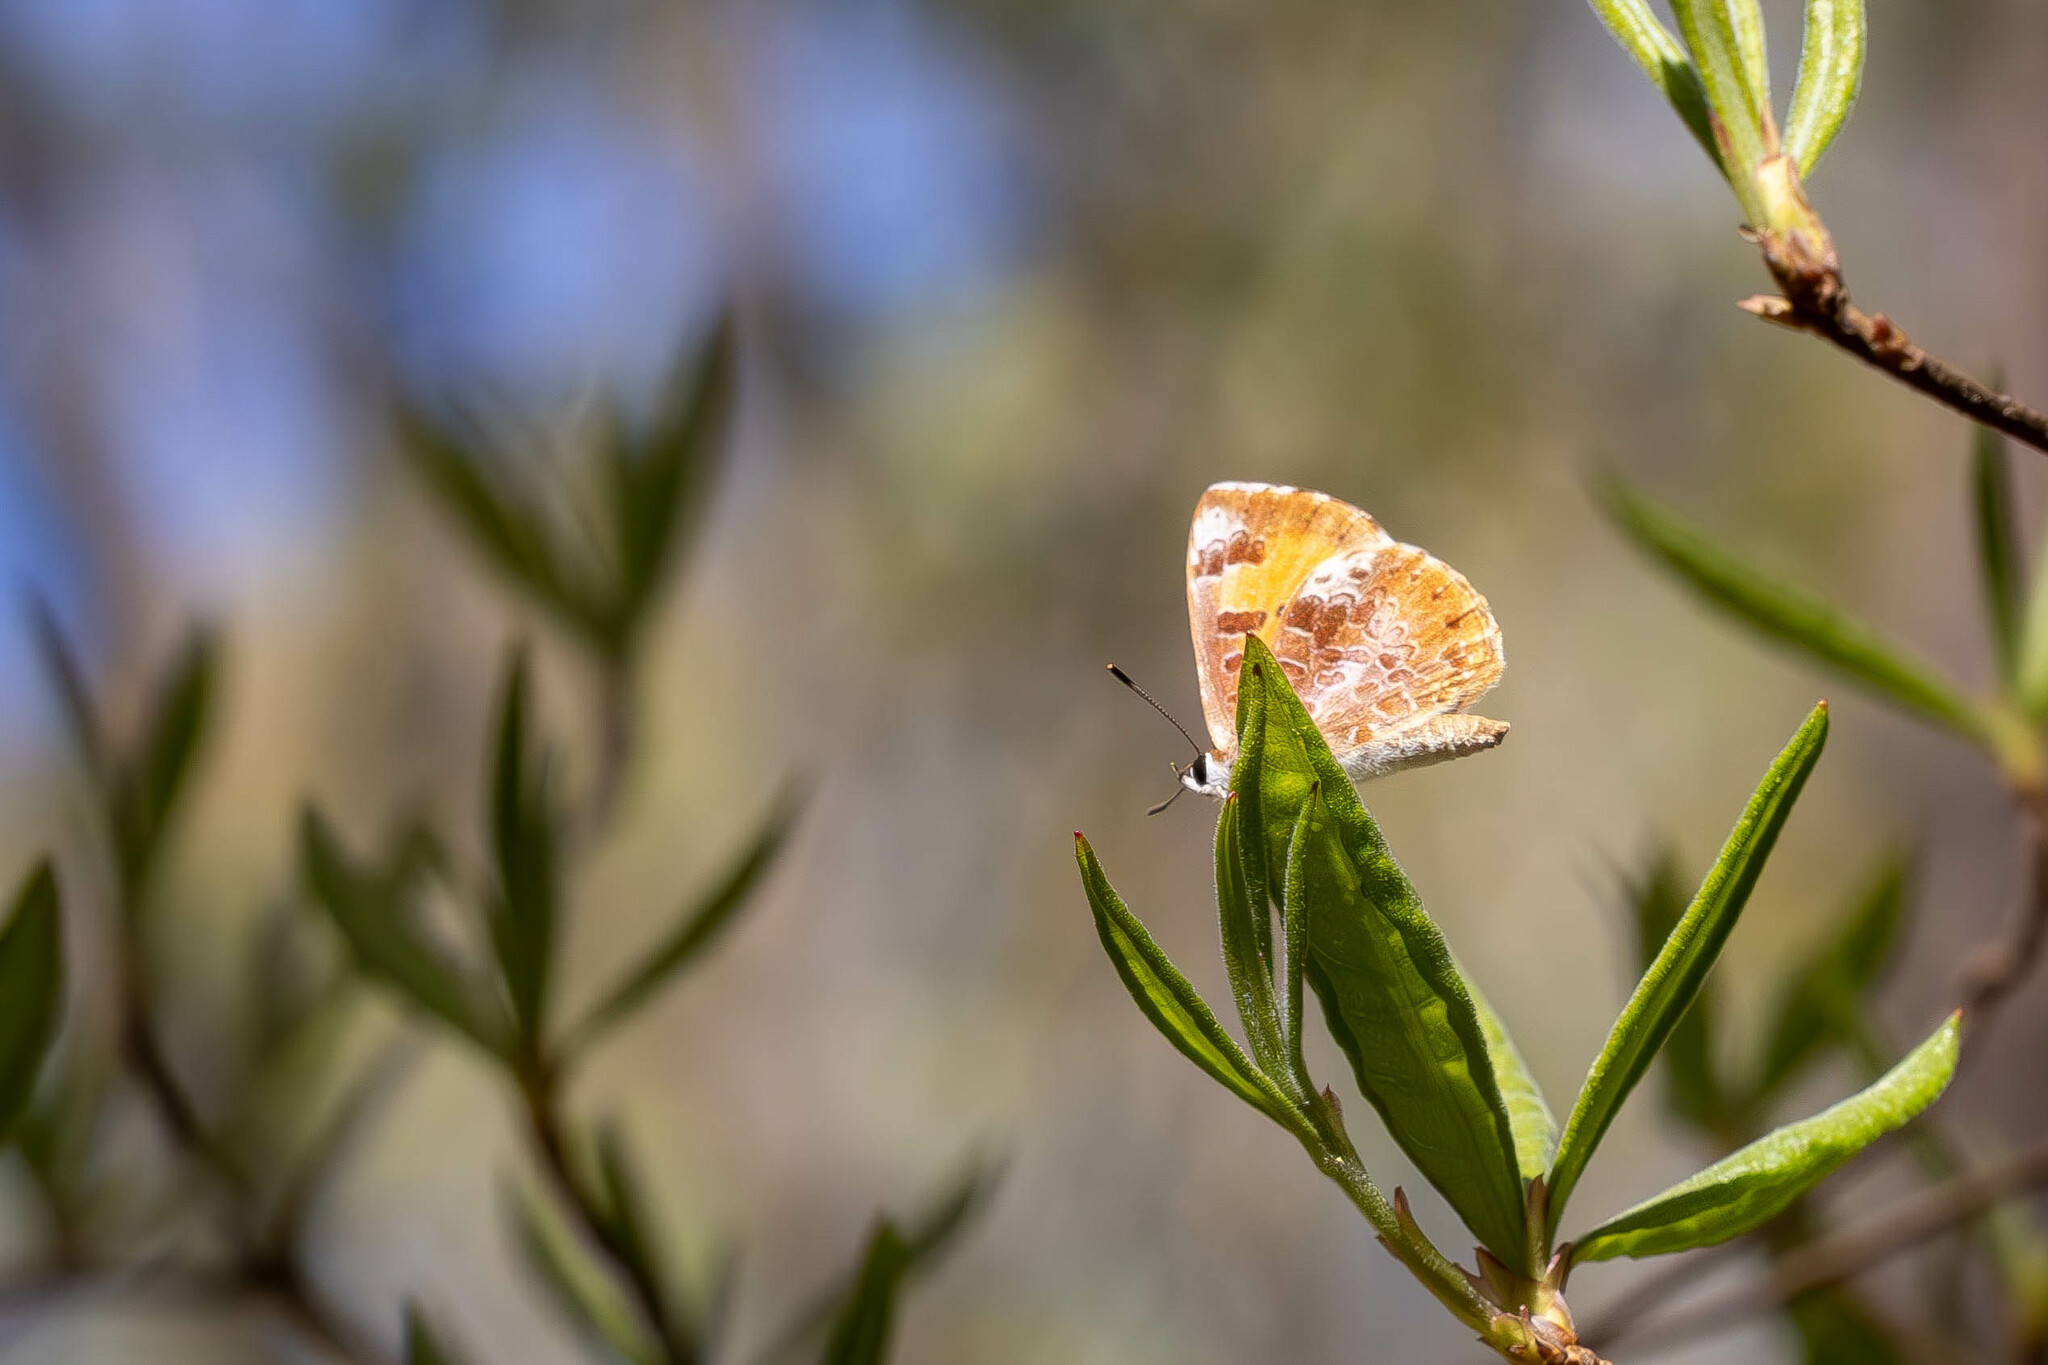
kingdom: Animalia
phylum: Arthropoda
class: Insecta
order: Lepidoptera
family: Lycaenidae
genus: Feniseca
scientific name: Feniseca tarquinius
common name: Harvester
